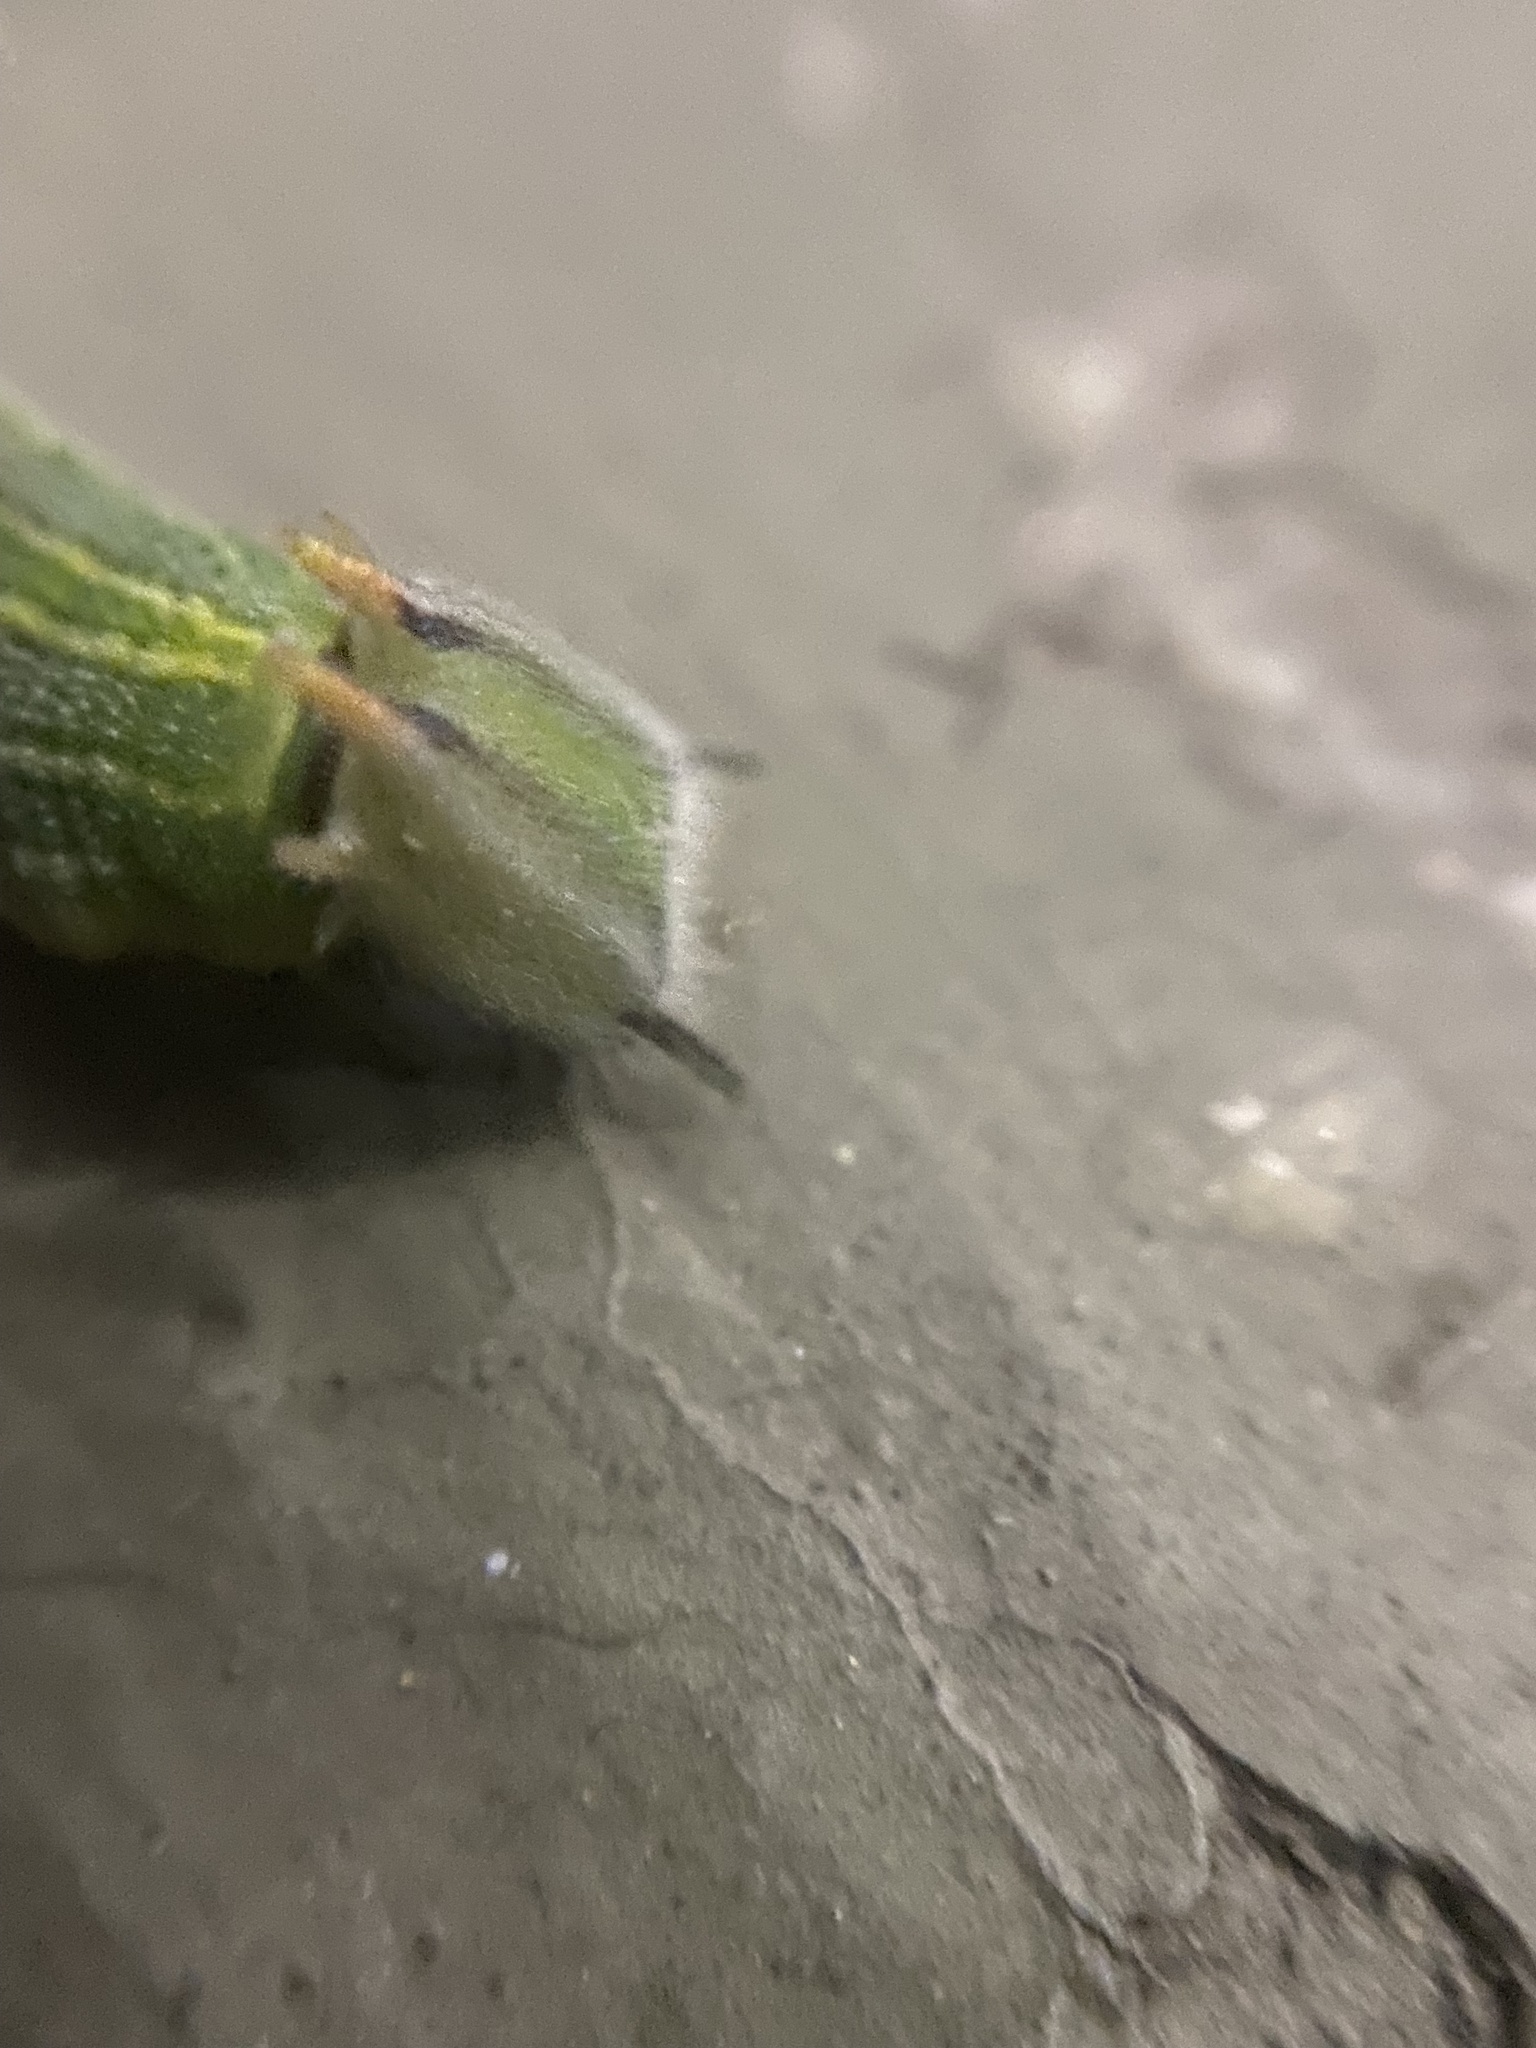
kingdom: Animalia
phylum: Arthropoda
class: Insecta
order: Lepidoptera
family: Nymphalidae
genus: Opsiphanes
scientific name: Opsiphanes invirae
